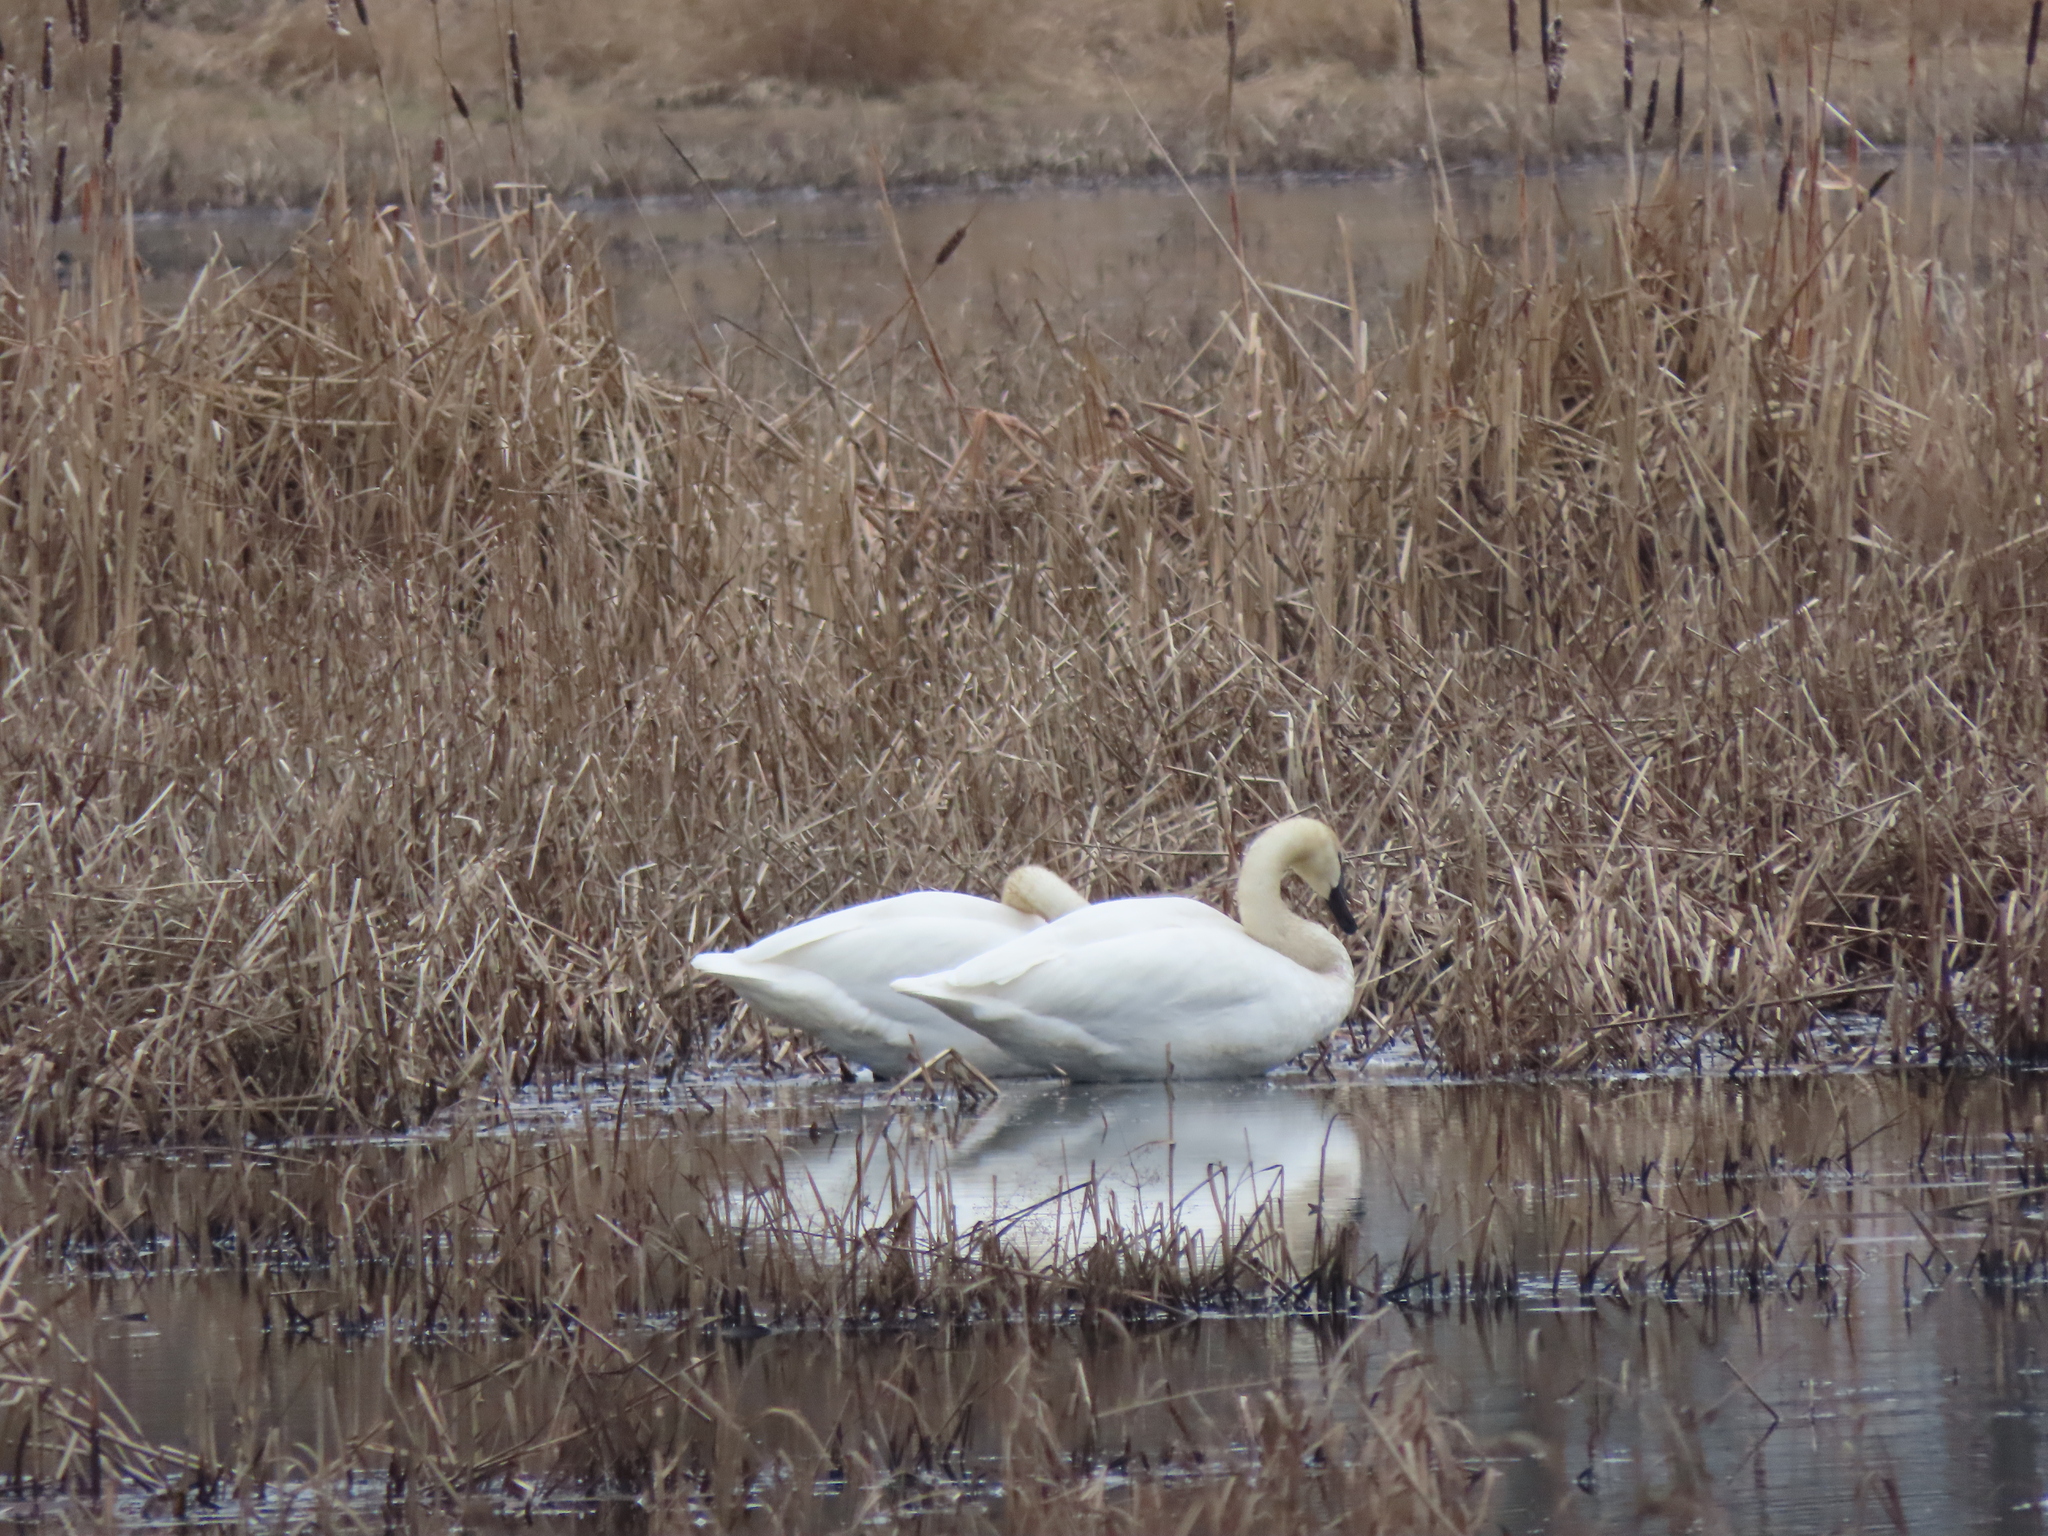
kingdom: Animalia
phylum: Chordata
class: Aves
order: Anseriformes
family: Anatidae
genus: Cygnus
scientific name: Cygnus buccinator
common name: Trumpeter swan
